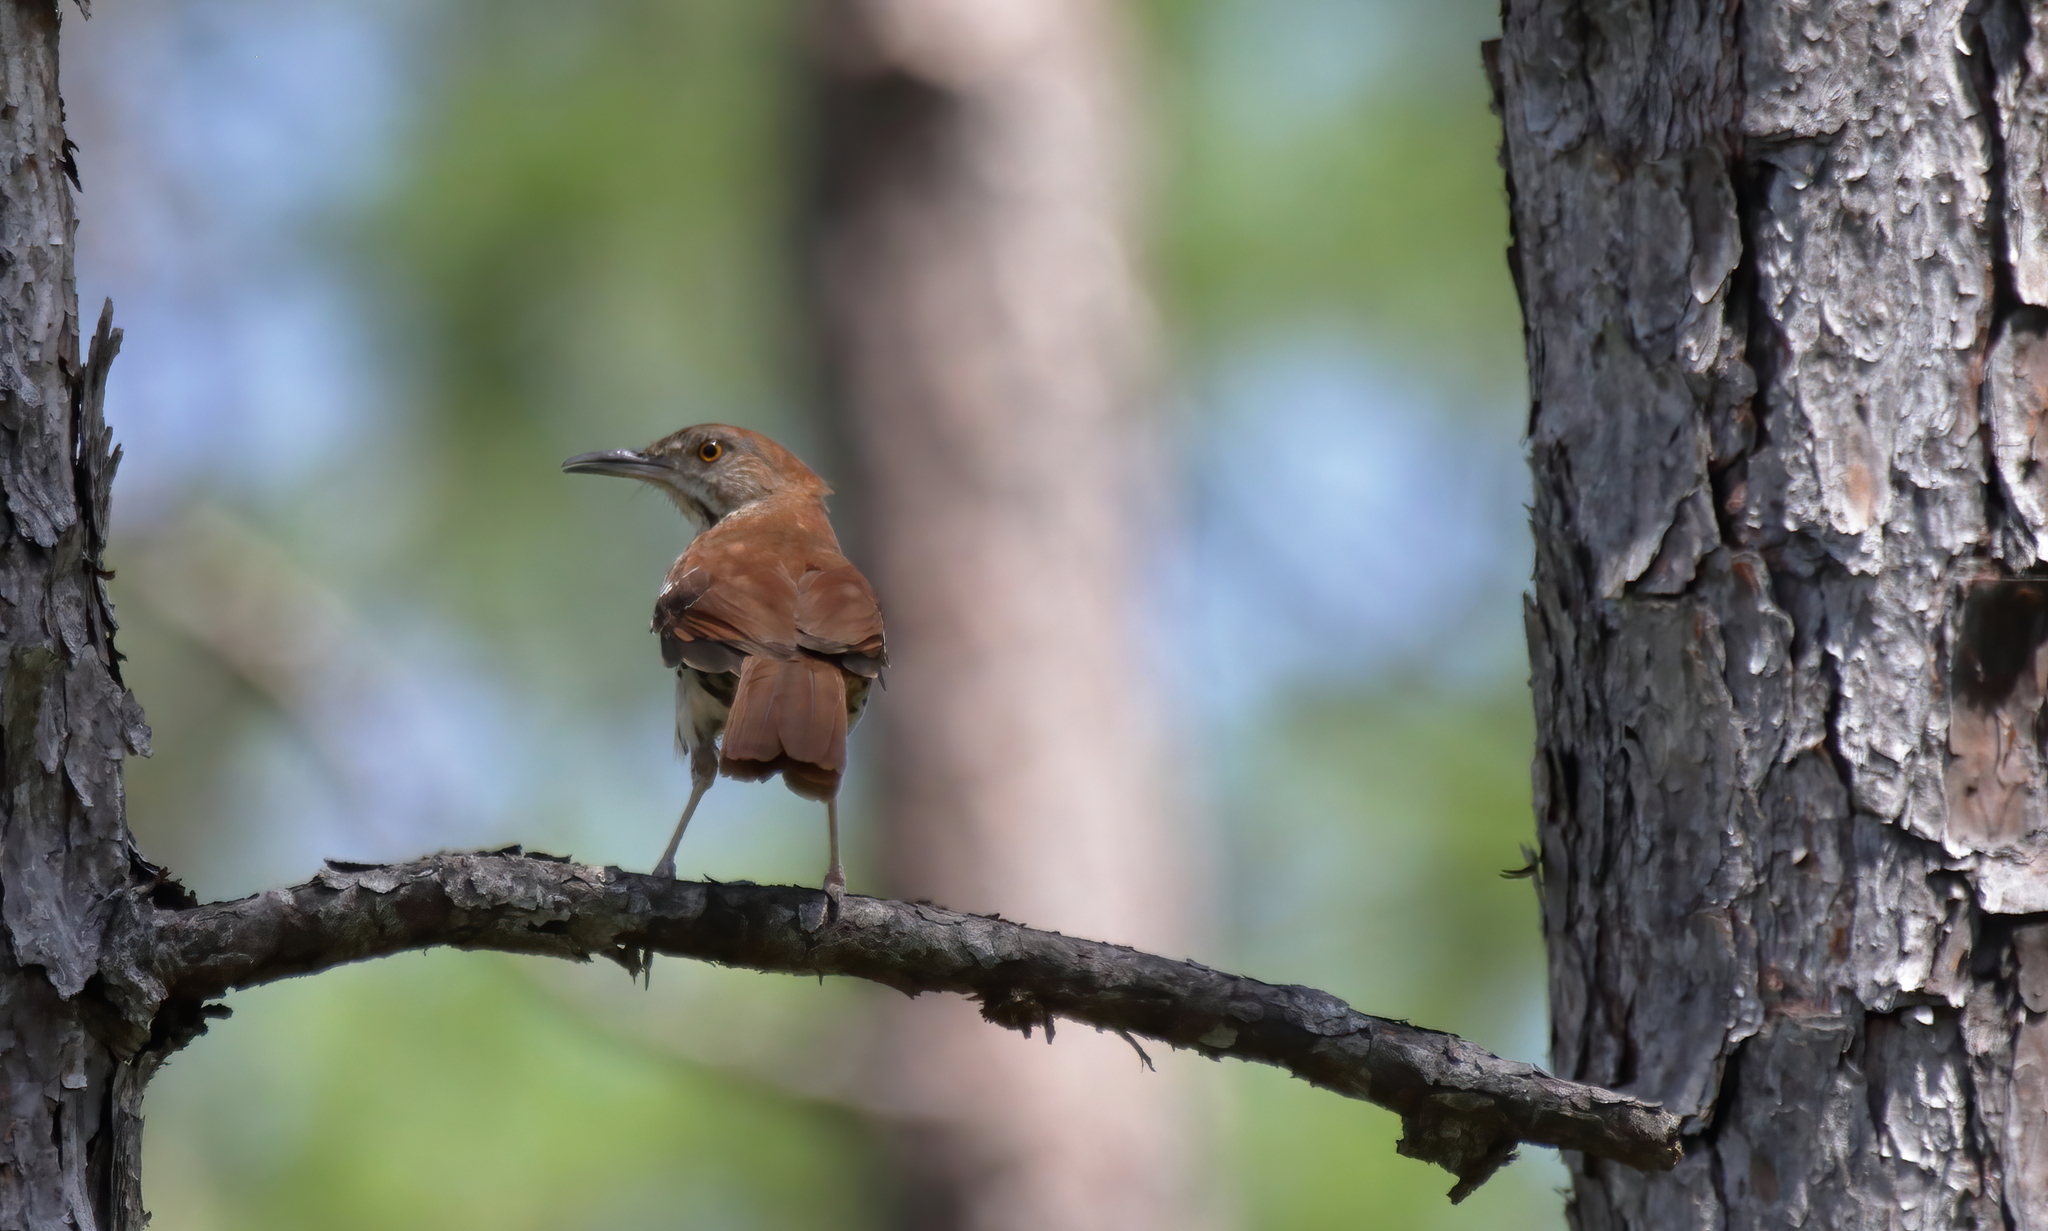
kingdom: Animalia
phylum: Chordata
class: Aves
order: Passeriformes
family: Mimidae
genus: Toxostoma
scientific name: Toxostoma rufum
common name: Brown thrasher
